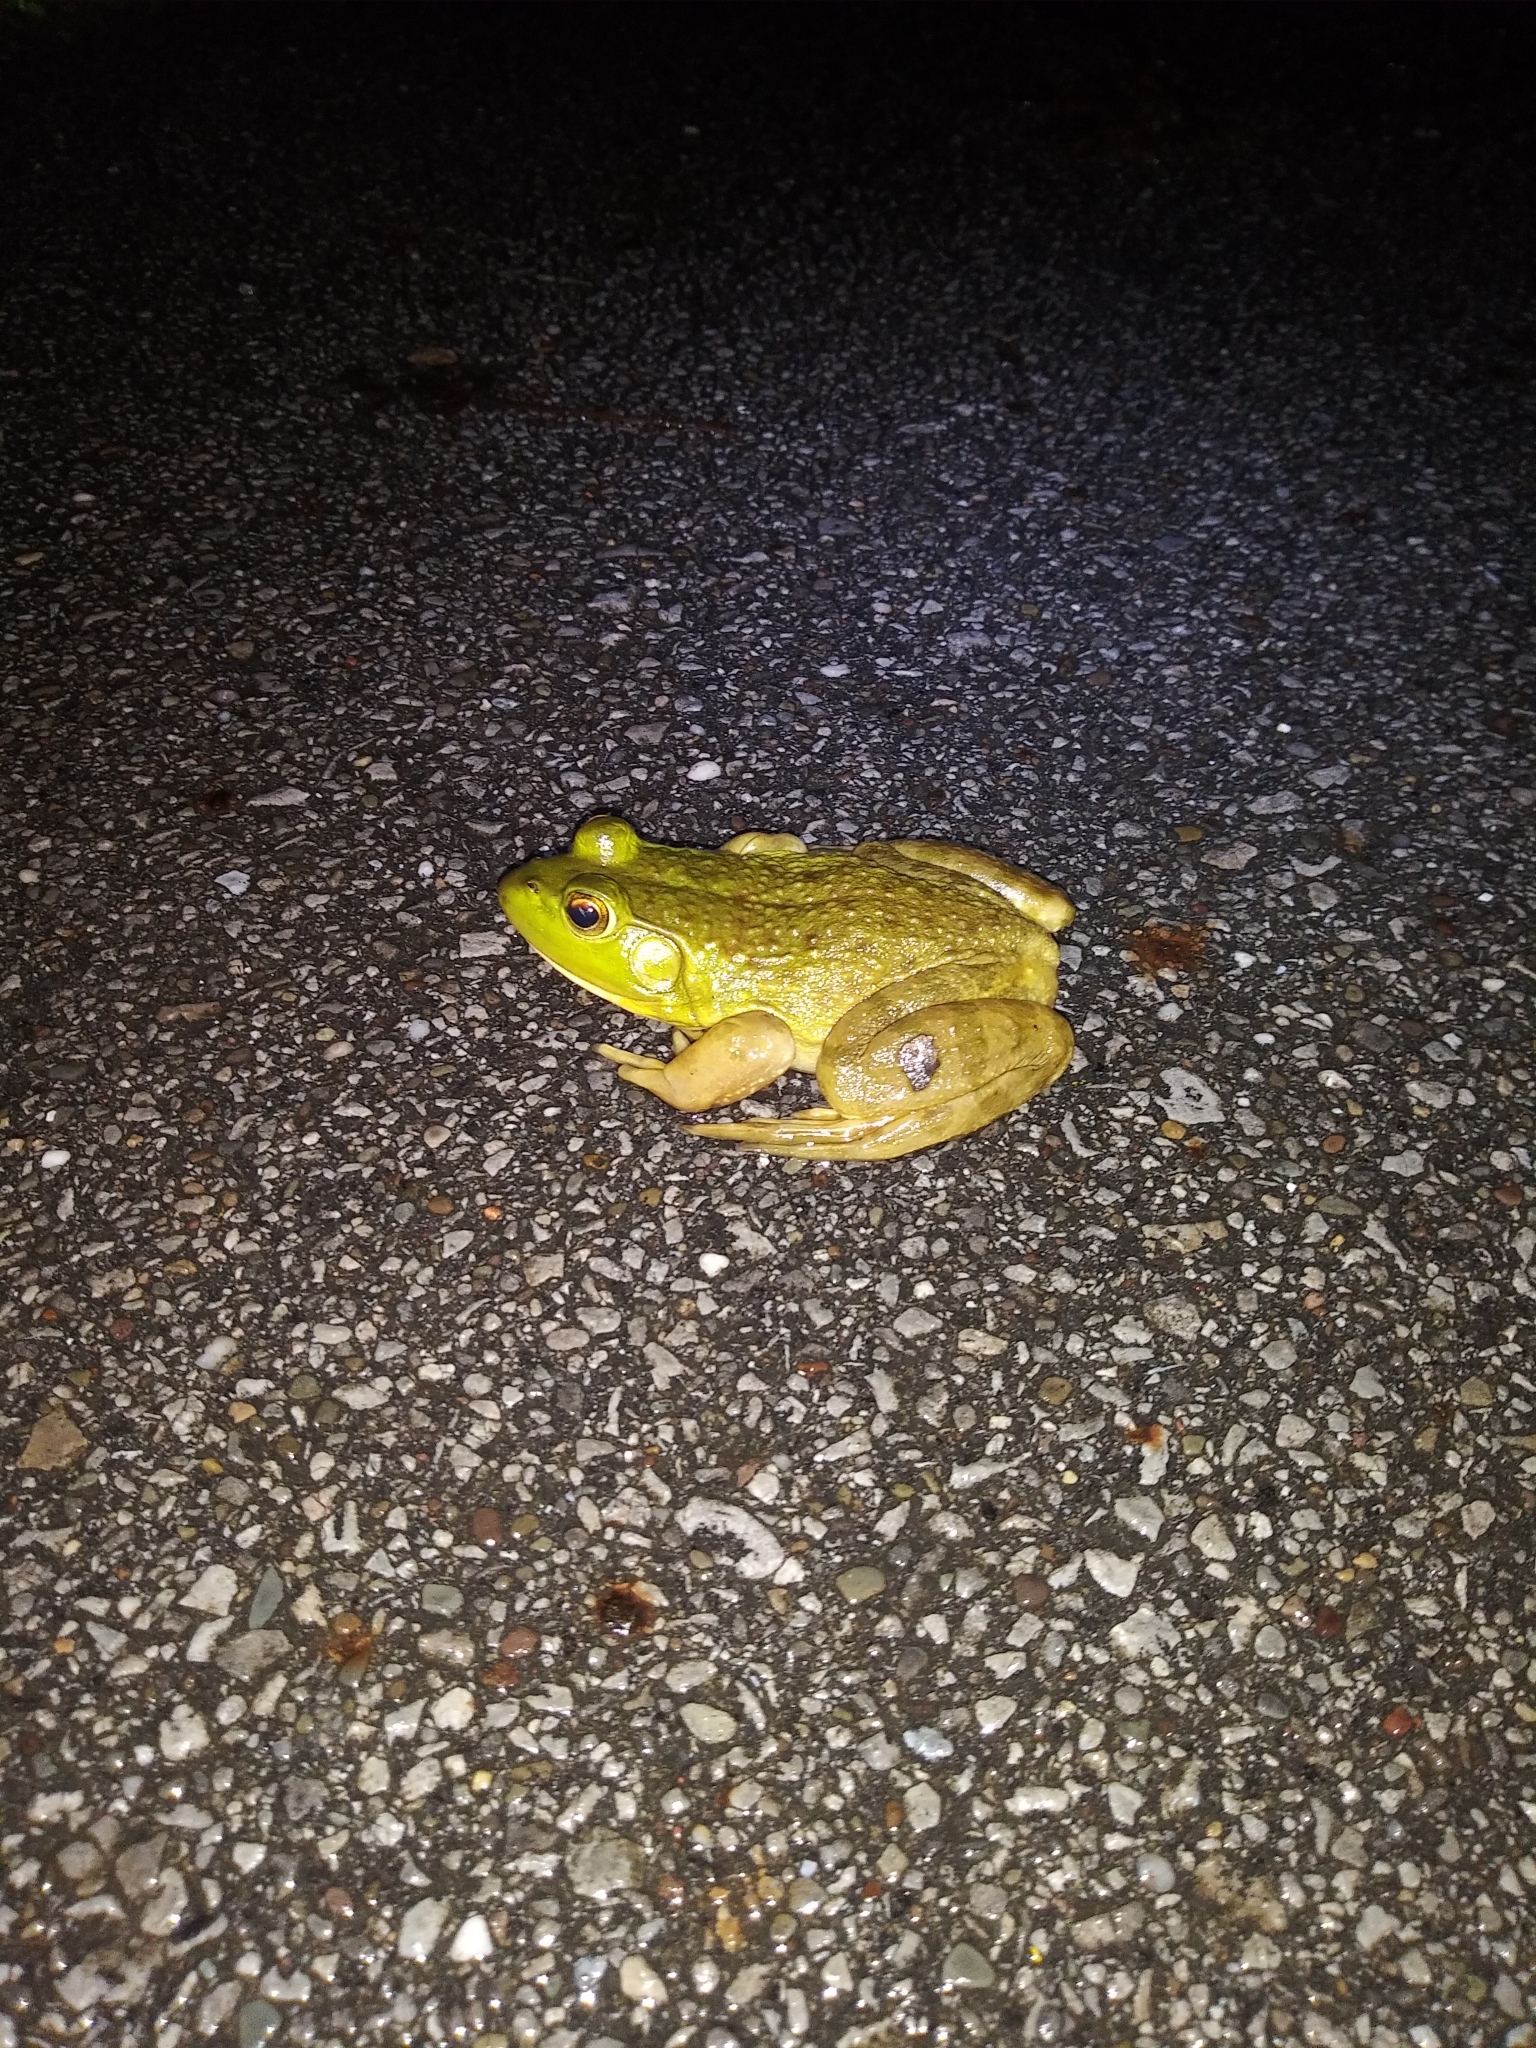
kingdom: Animalia
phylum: Chordata
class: Amphibia
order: Anura
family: Ranidae
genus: Lithobates
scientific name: Lithobates catesbeianus
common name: American bullfrog
